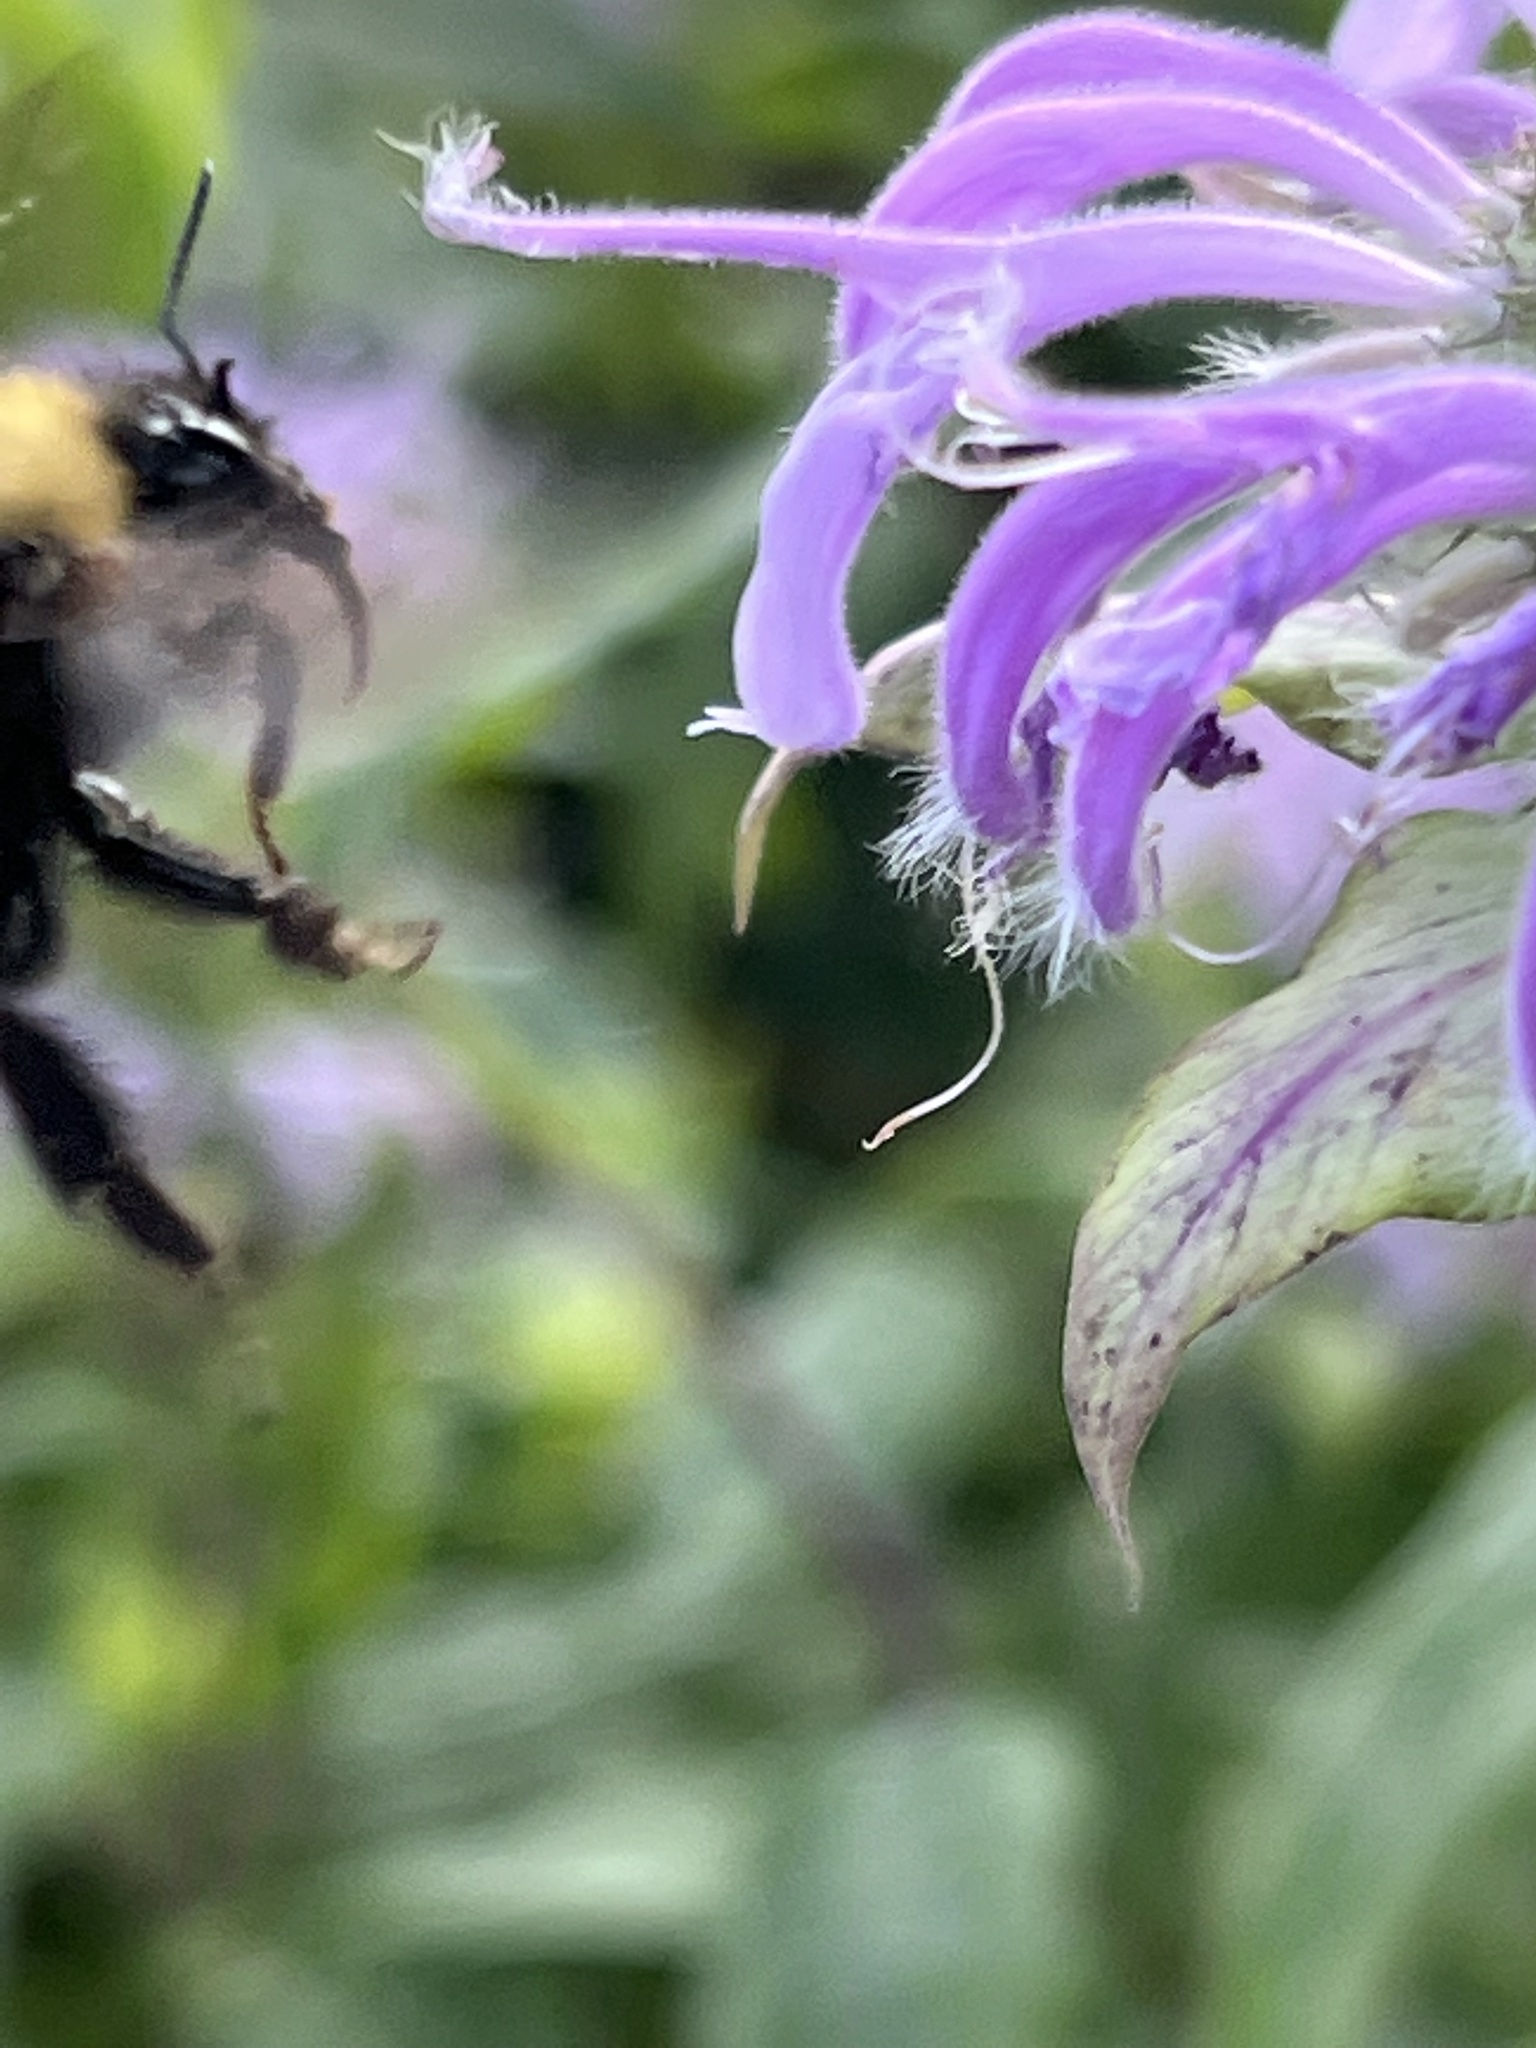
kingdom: Animalia
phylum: Arthropoda
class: Insecta
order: Hymenoptera
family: Apidae
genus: Bombus
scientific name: Bombus perplexus
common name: Confusing bumble bee
